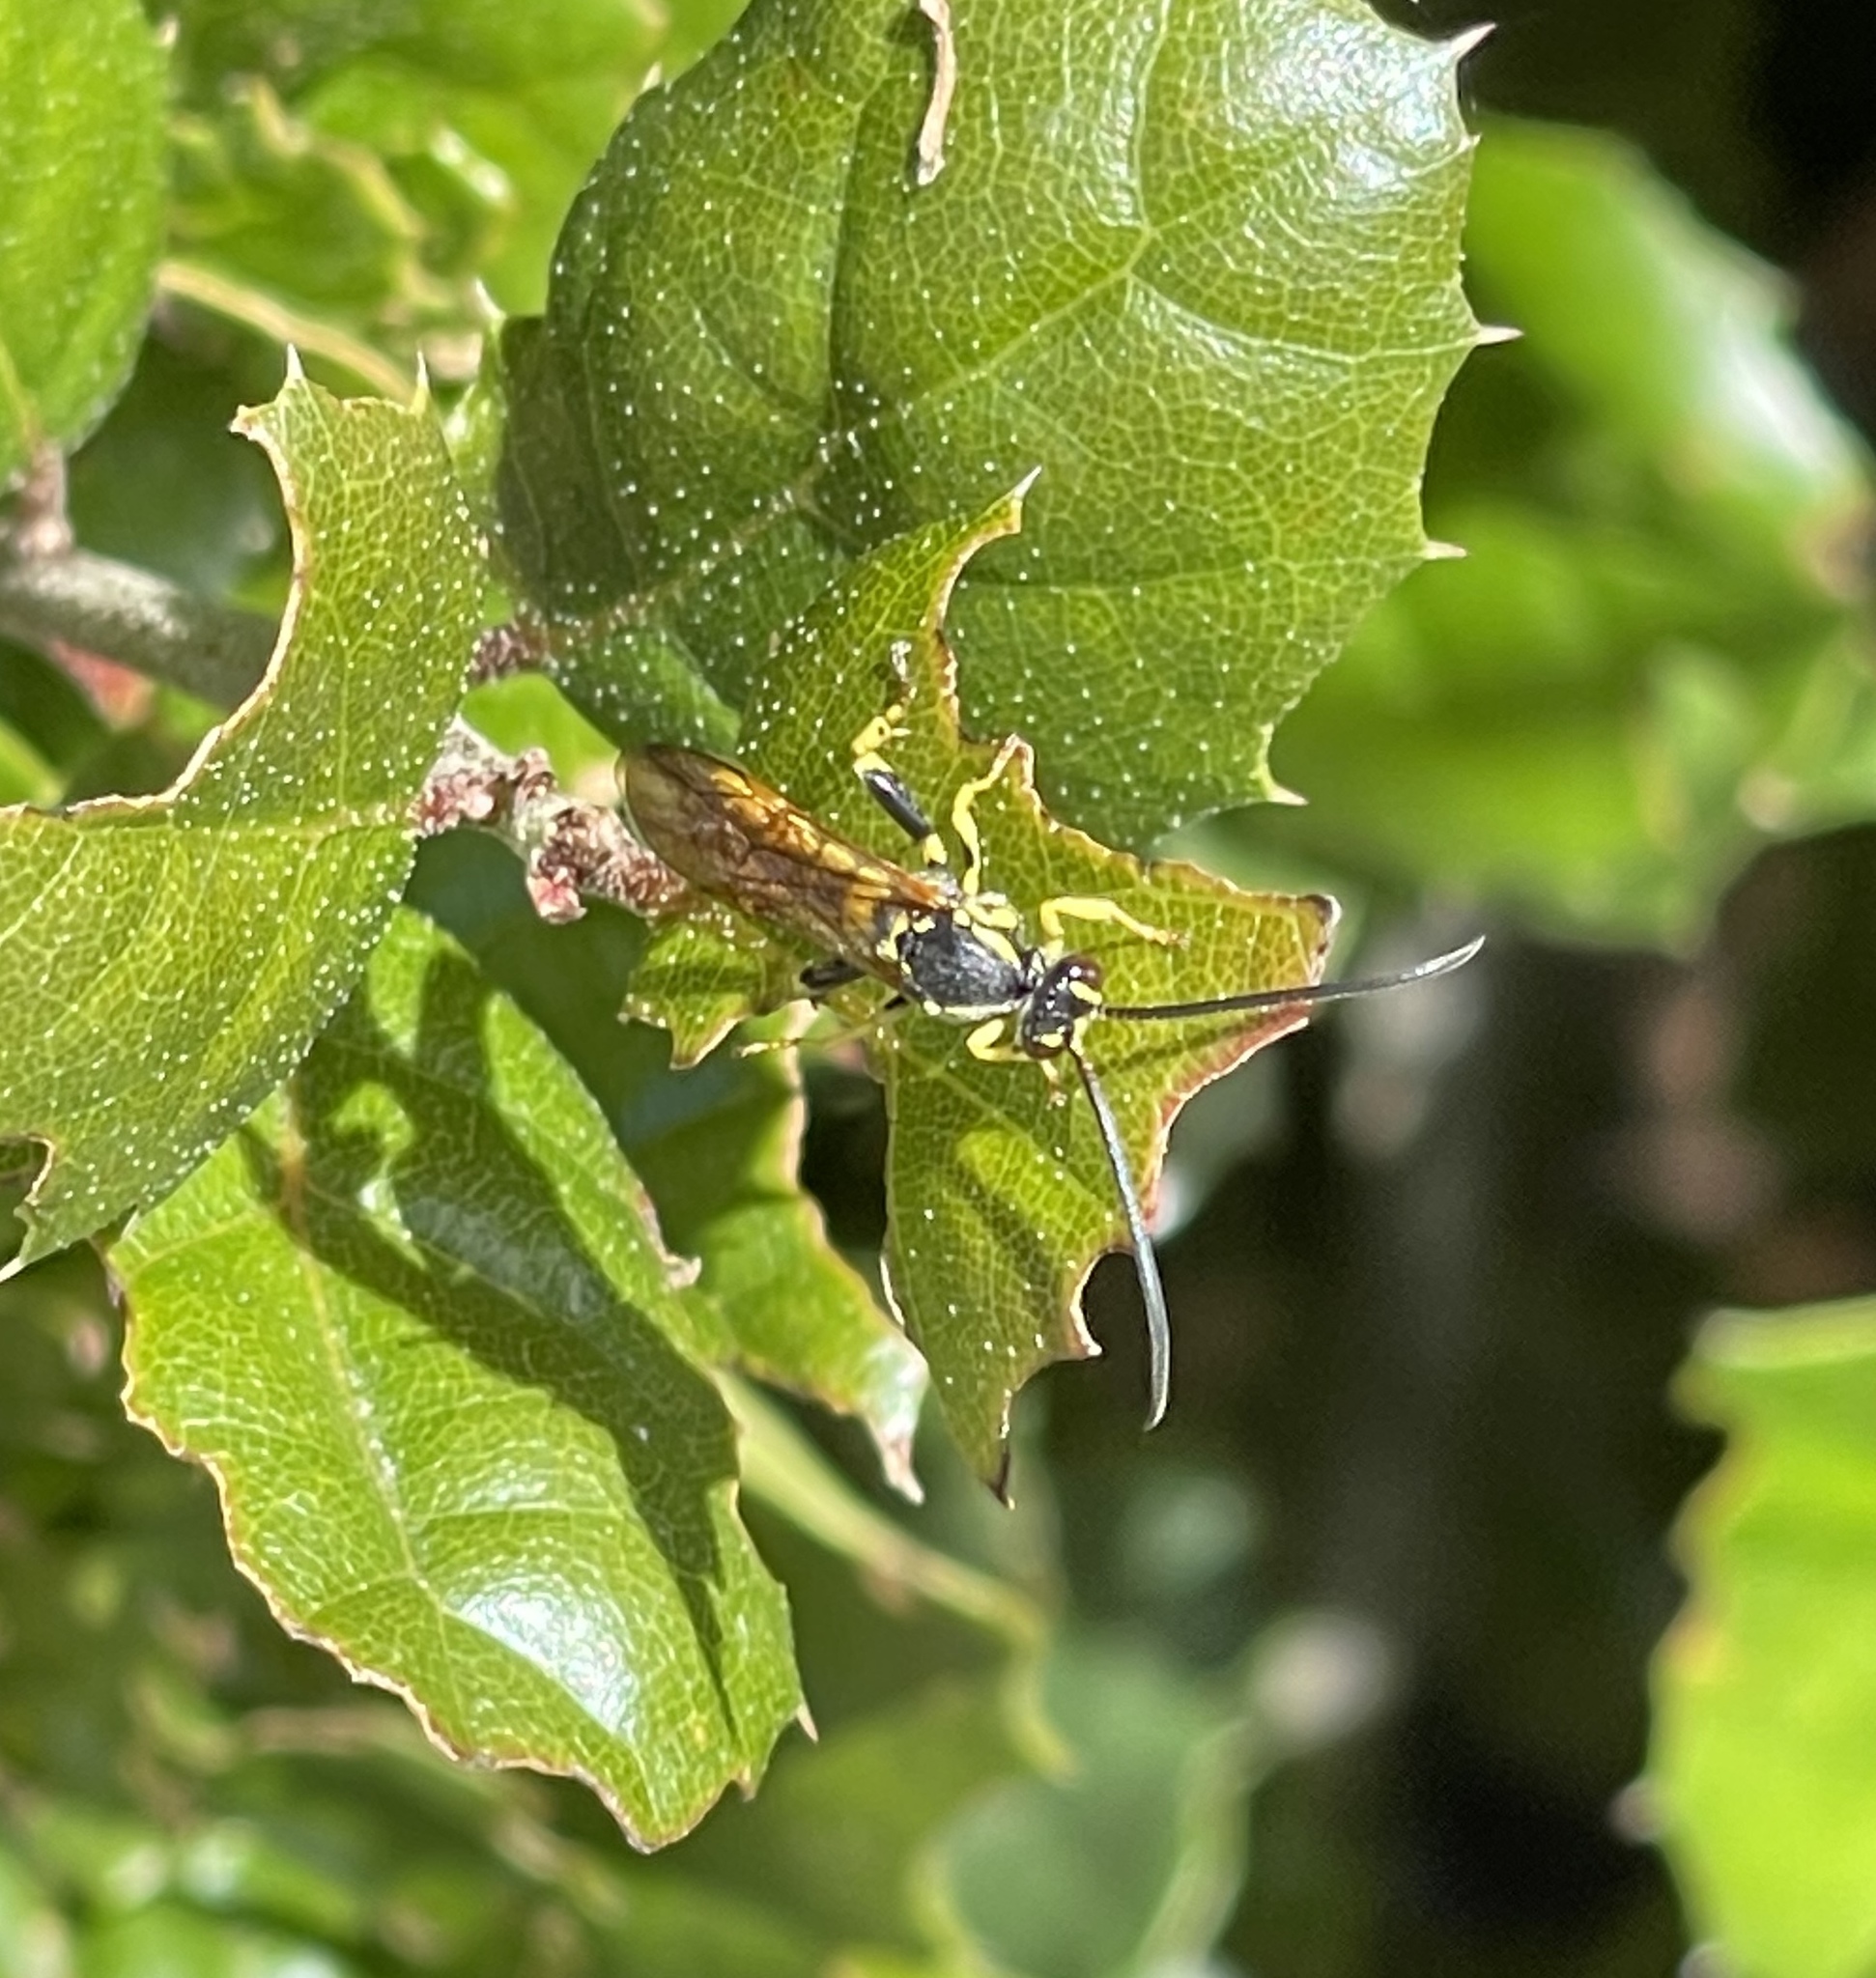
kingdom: Animalia
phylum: Arthropoda
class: Insecta
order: Hymenoptera
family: Ichneumonidae
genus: Metopius
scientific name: Metopius galbaneus
